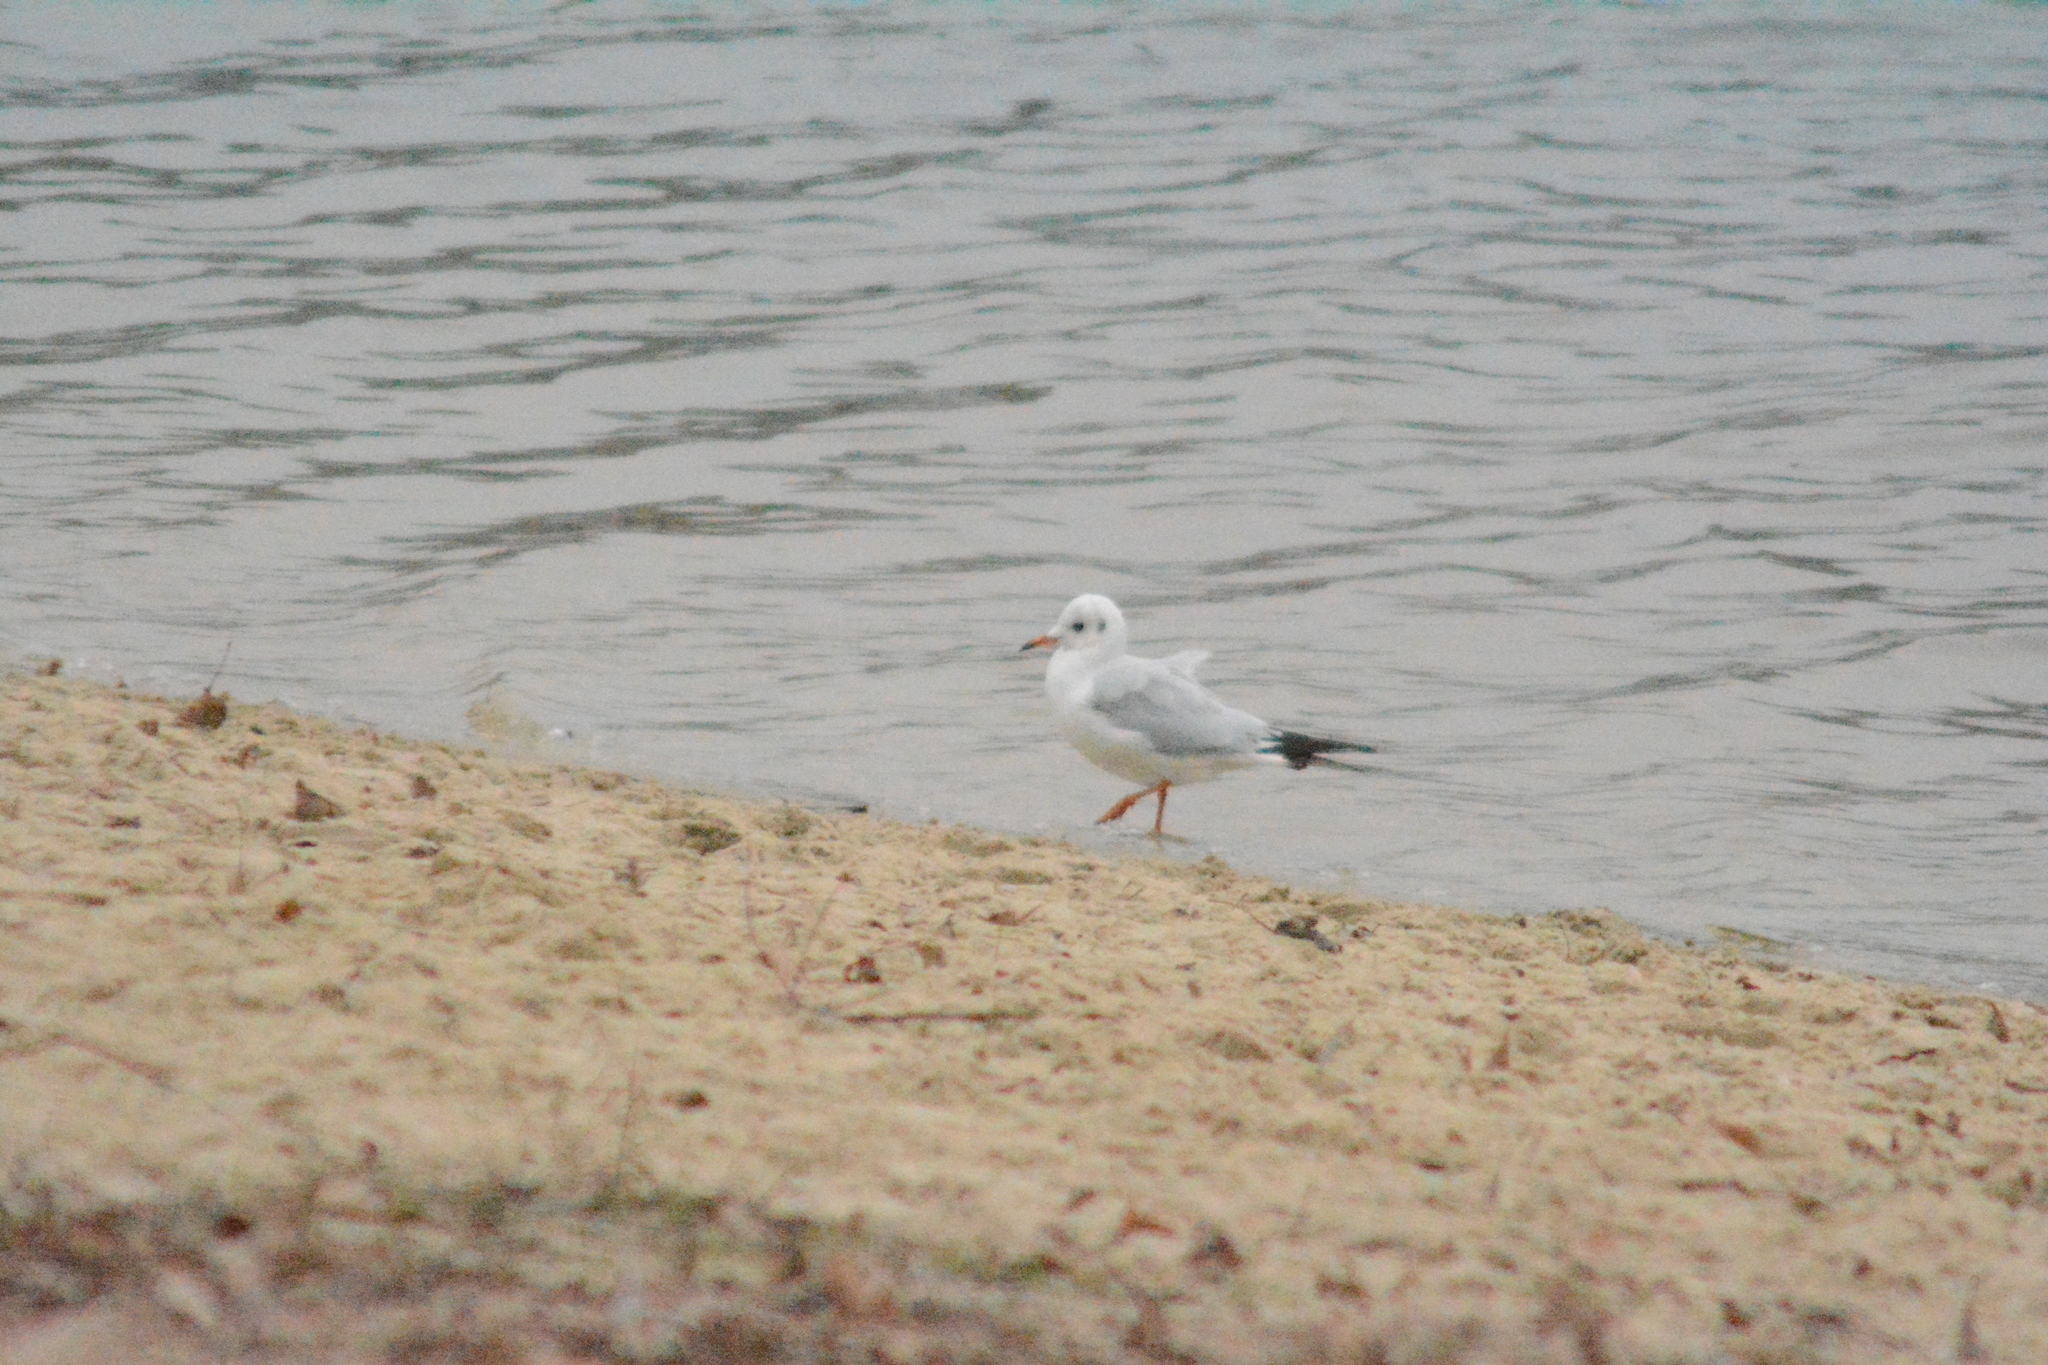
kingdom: Animalia
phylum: Chordata
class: Aves
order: Charadriiformes
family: Laridae
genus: Chroicocephalus
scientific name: Chroicocephalus ridibundus
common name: Black-headed gull
